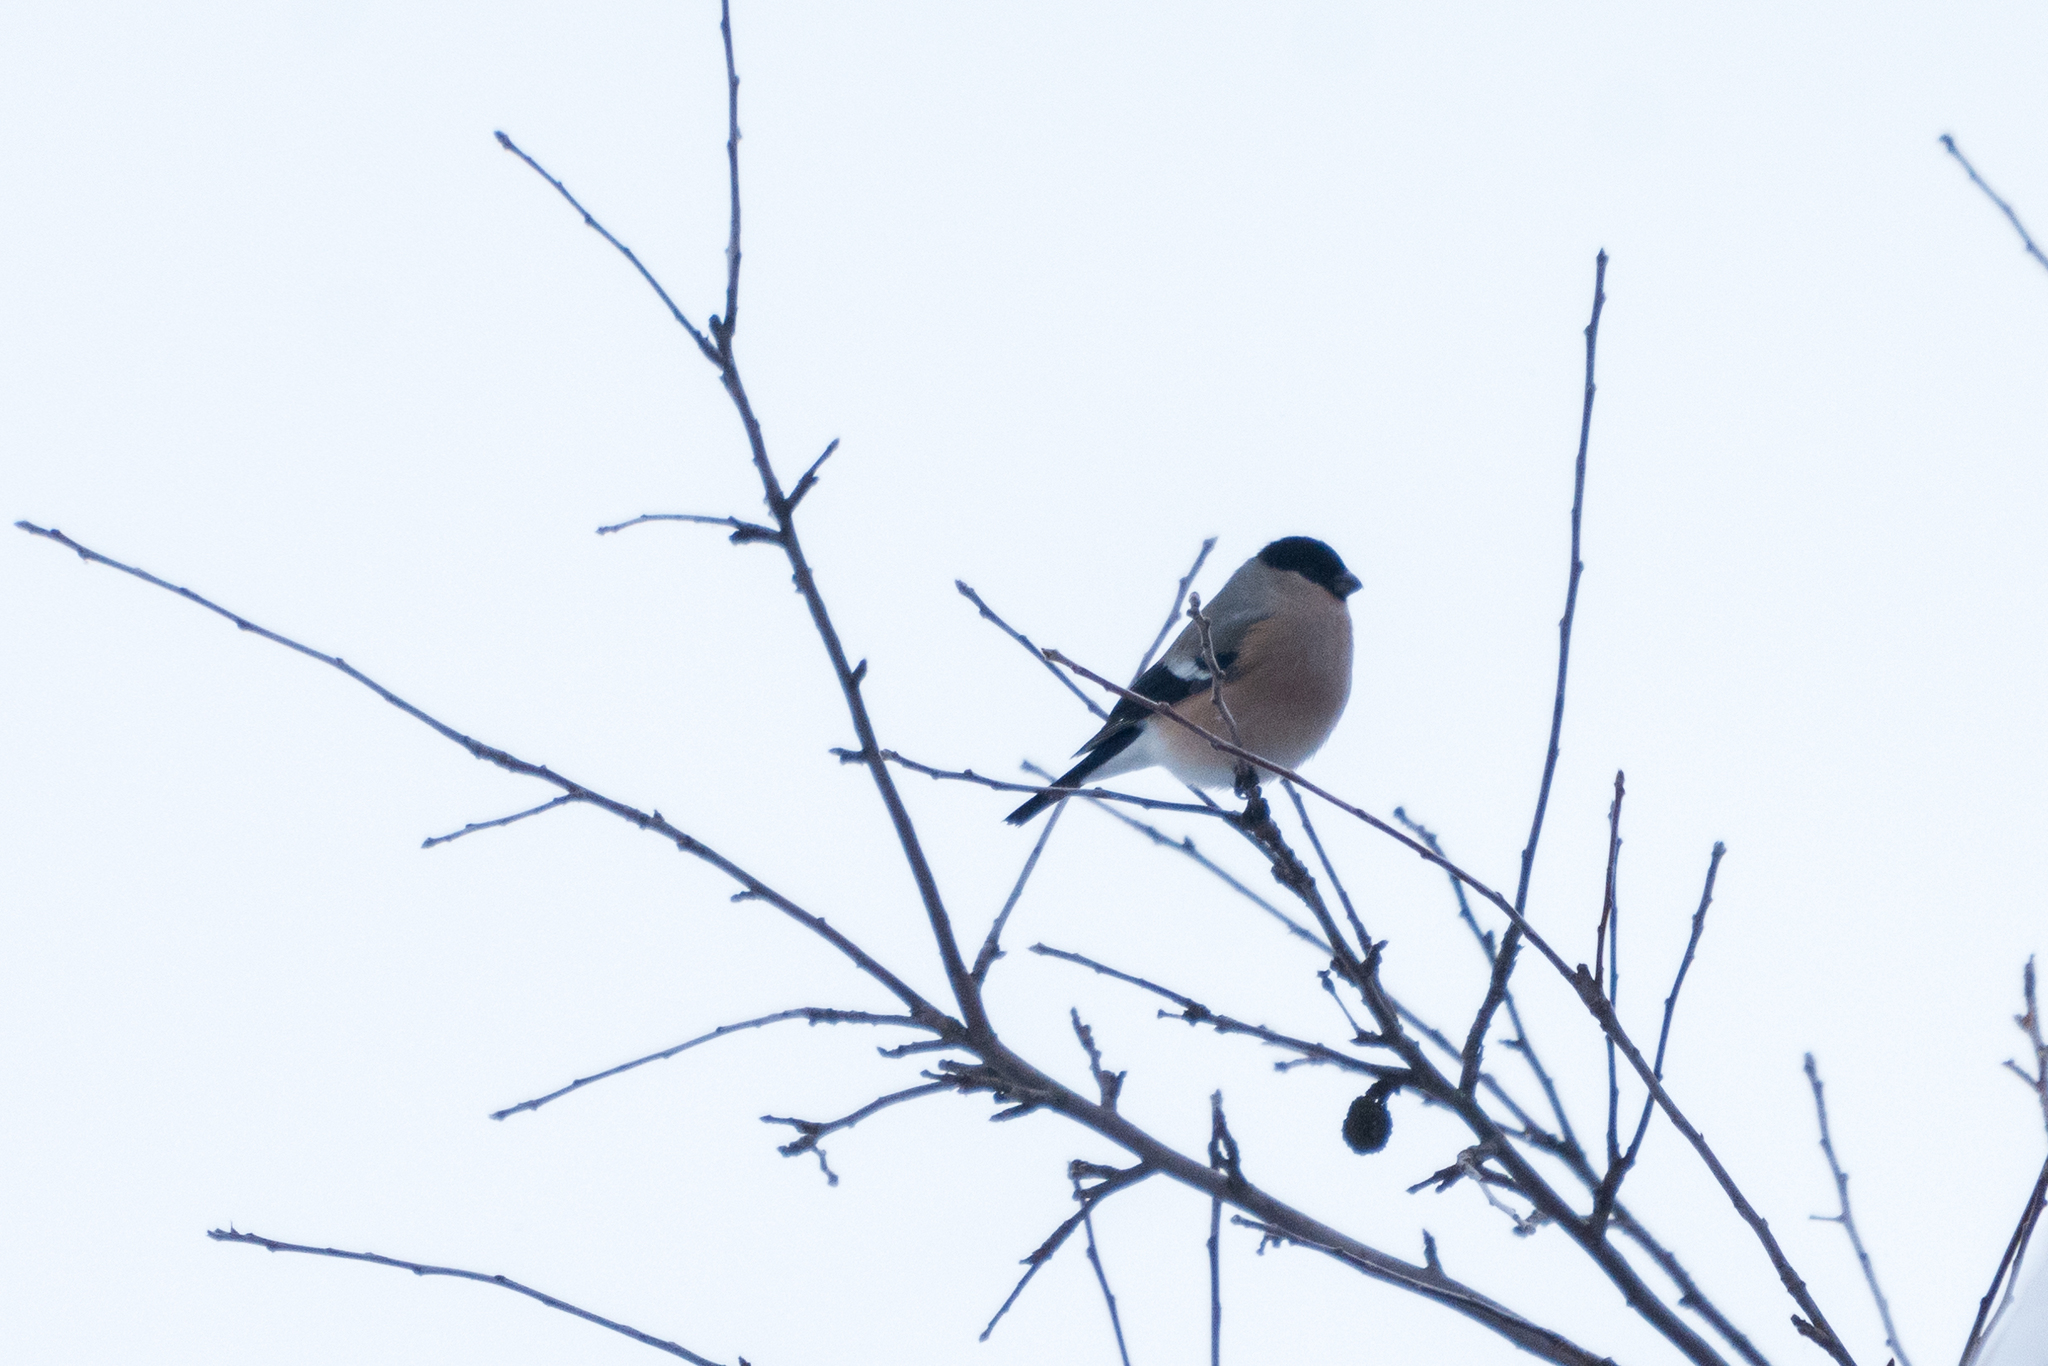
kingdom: Animalia
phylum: Chordata
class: Aves
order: Passeriformes
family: Fringillidae
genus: Pyrrhula
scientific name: Pyrrhula pyrrhula
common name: Eurasian bullfinch
